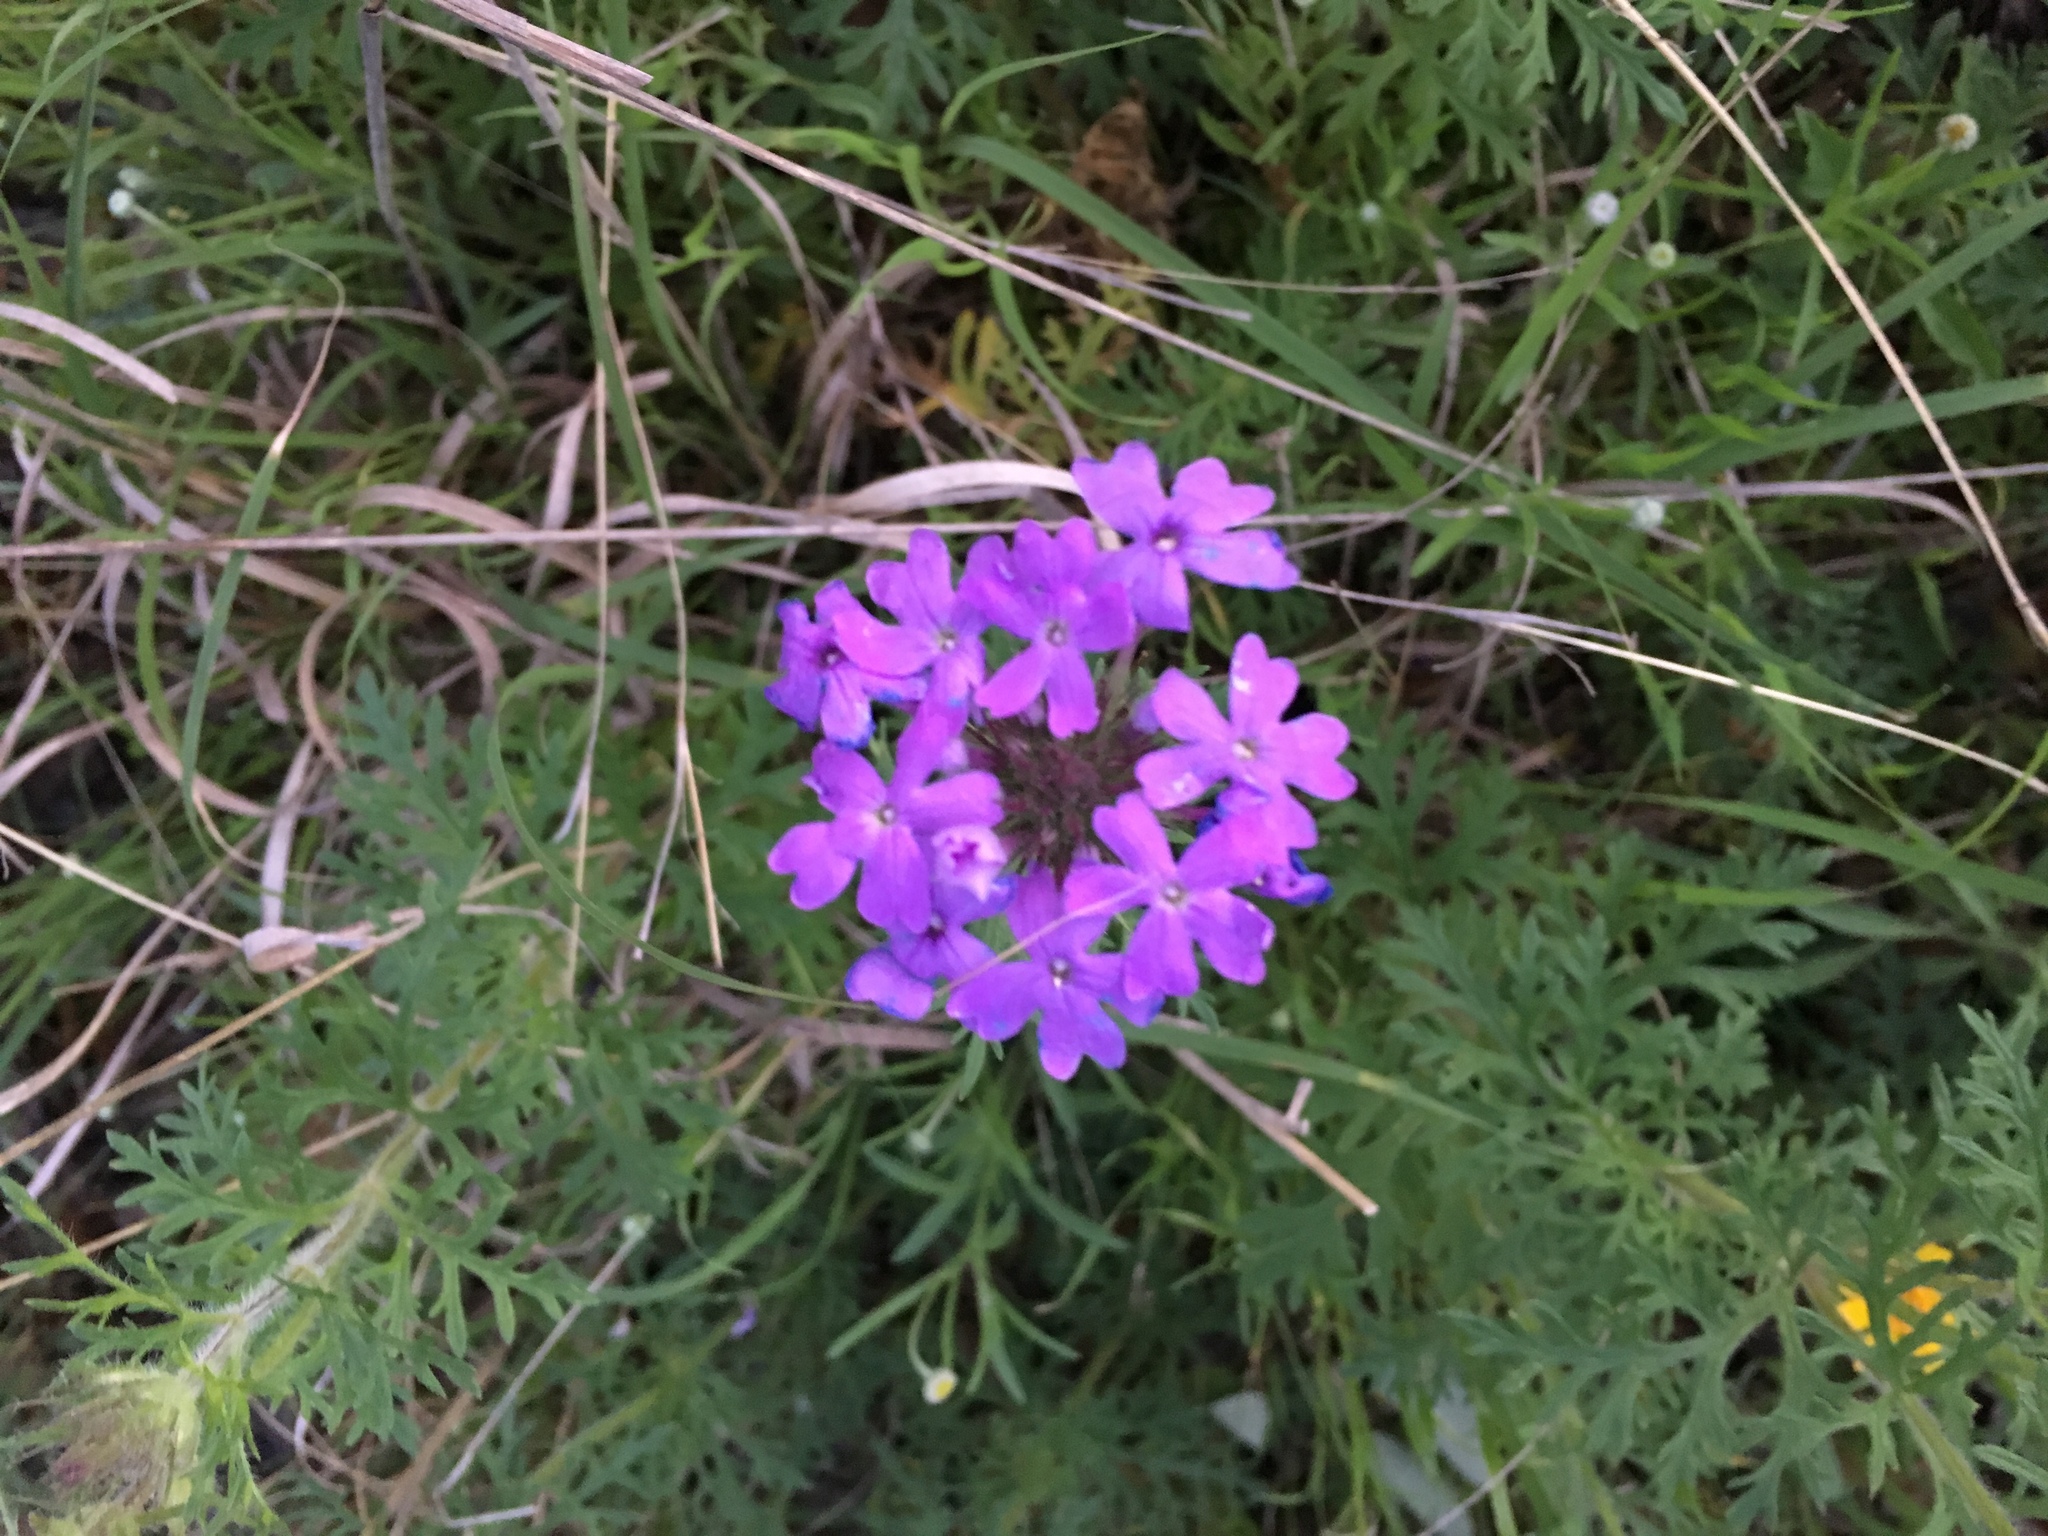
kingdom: Plantae
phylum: Tracheophyta
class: Magnoliopsida
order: Lamiales
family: Verbenaceae
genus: Verbena
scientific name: Verbena bipinnatifida
